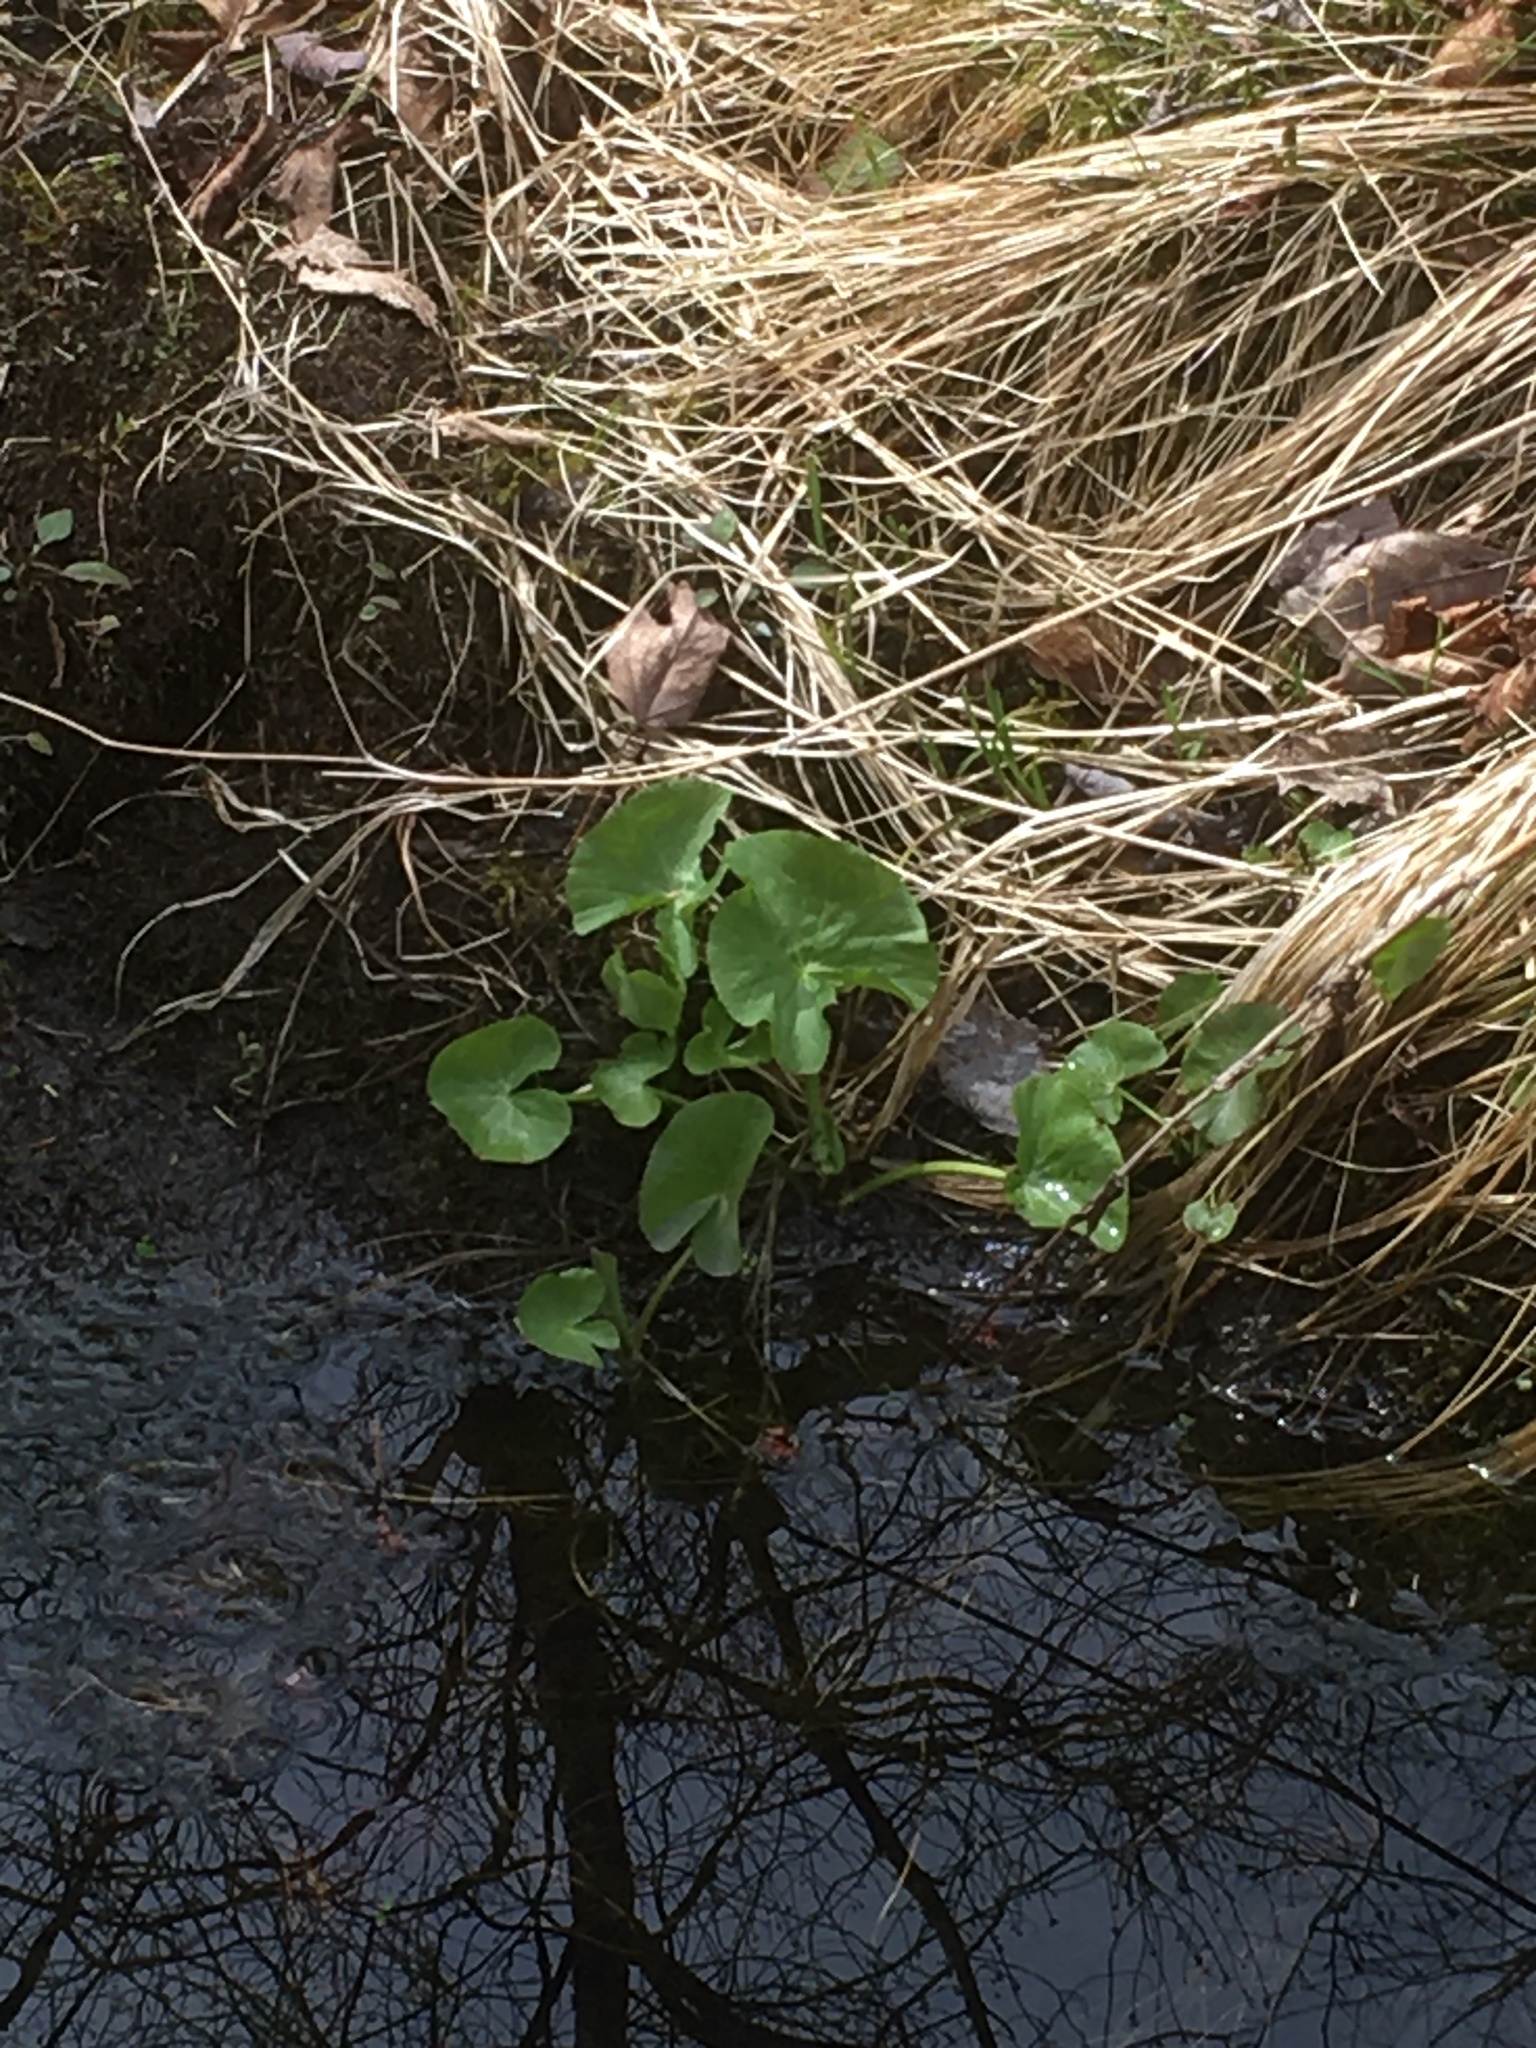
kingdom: Plantae
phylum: Tracheophyta
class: Magnoliopsida
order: Ranunculales
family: Ranunculaceae
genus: Caltha
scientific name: Caltha palustris
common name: Marsh marigold
